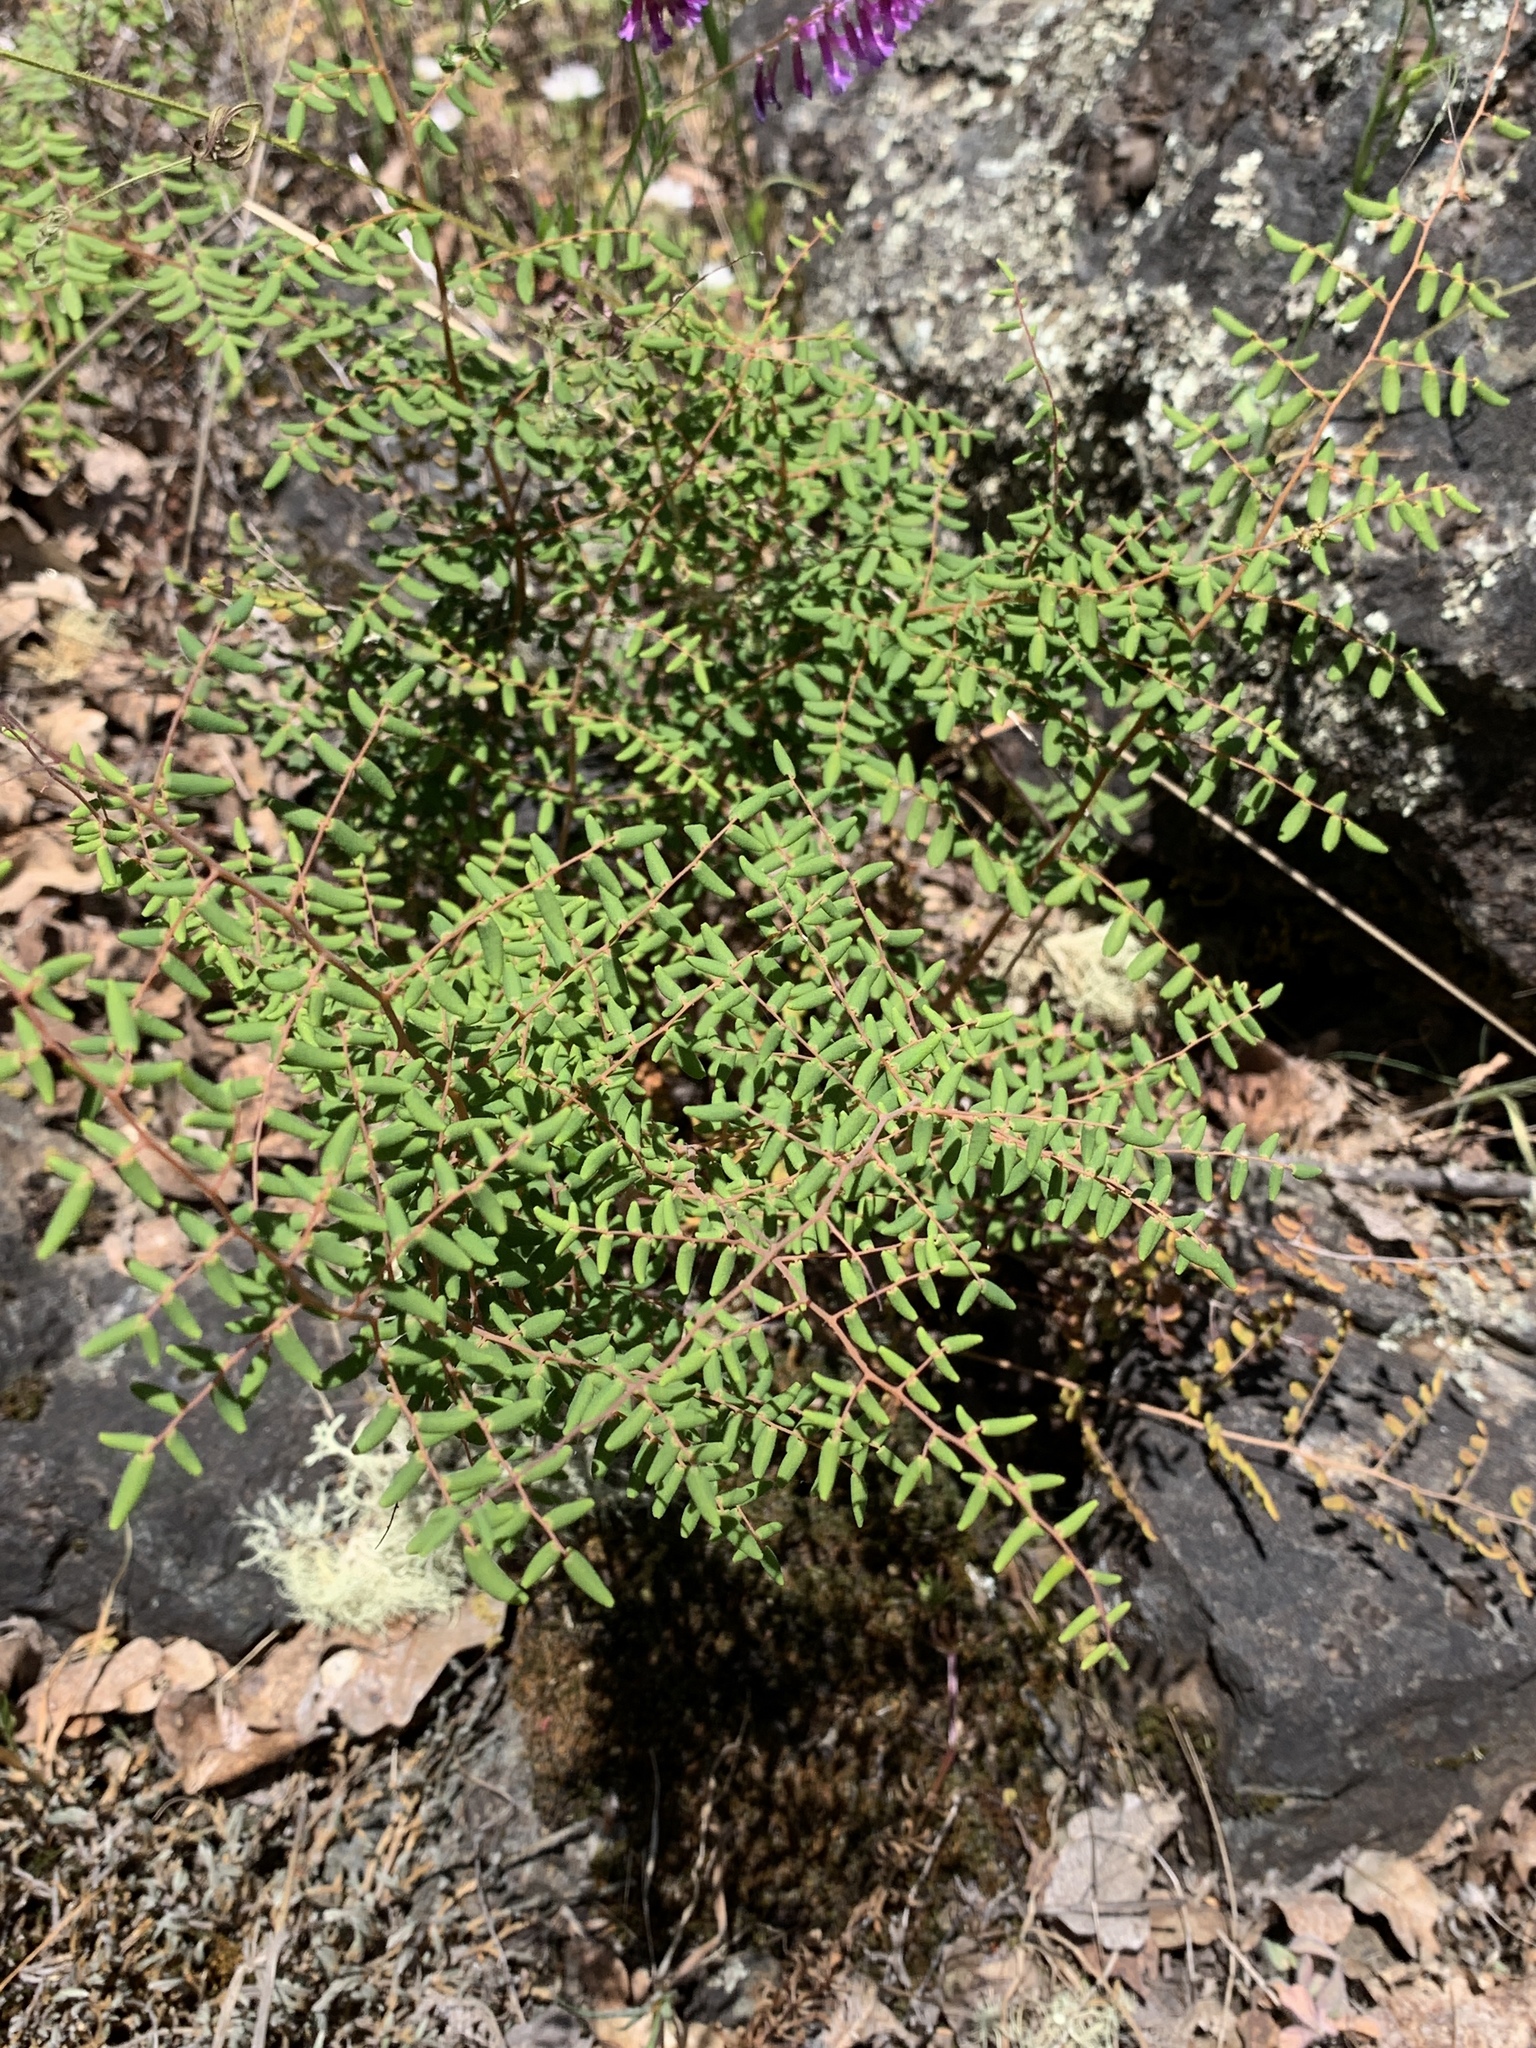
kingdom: Plantae
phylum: Tracheophyta
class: Polypodiopsida
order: Polypodiales
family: Pteridaceae
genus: Pellaea
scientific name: Pellaea andromedifolia
